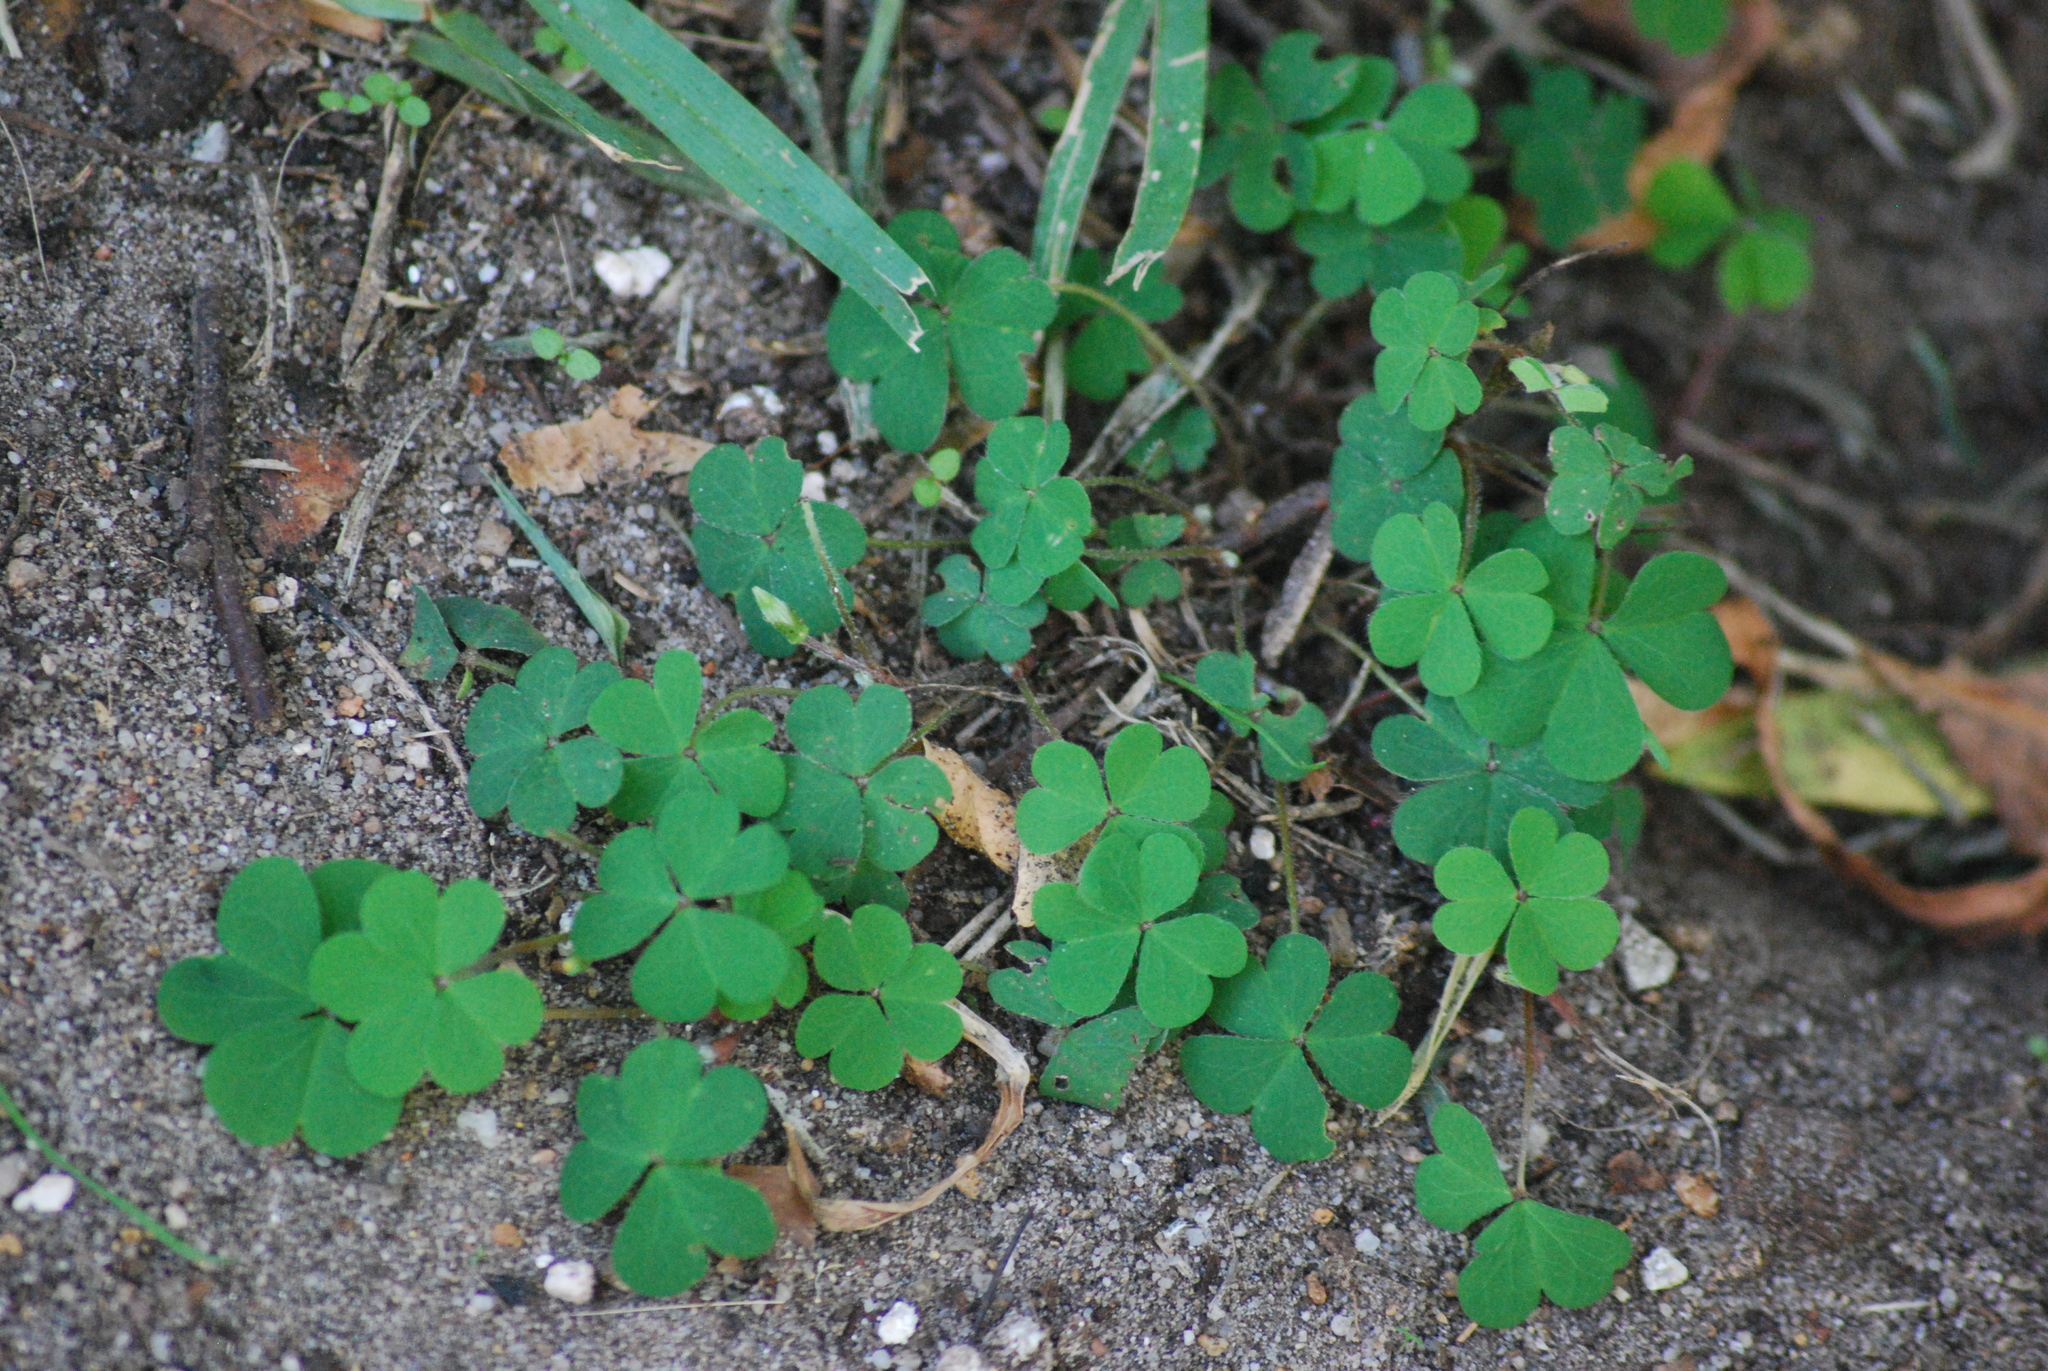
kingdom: Plantae
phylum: Tracheophyta
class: Magnoliopsida
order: Oxalidales
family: Oxalidaceae
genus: Oxalis
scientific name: Oxalis corniculata
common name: Procumbent yellow-sorrel
